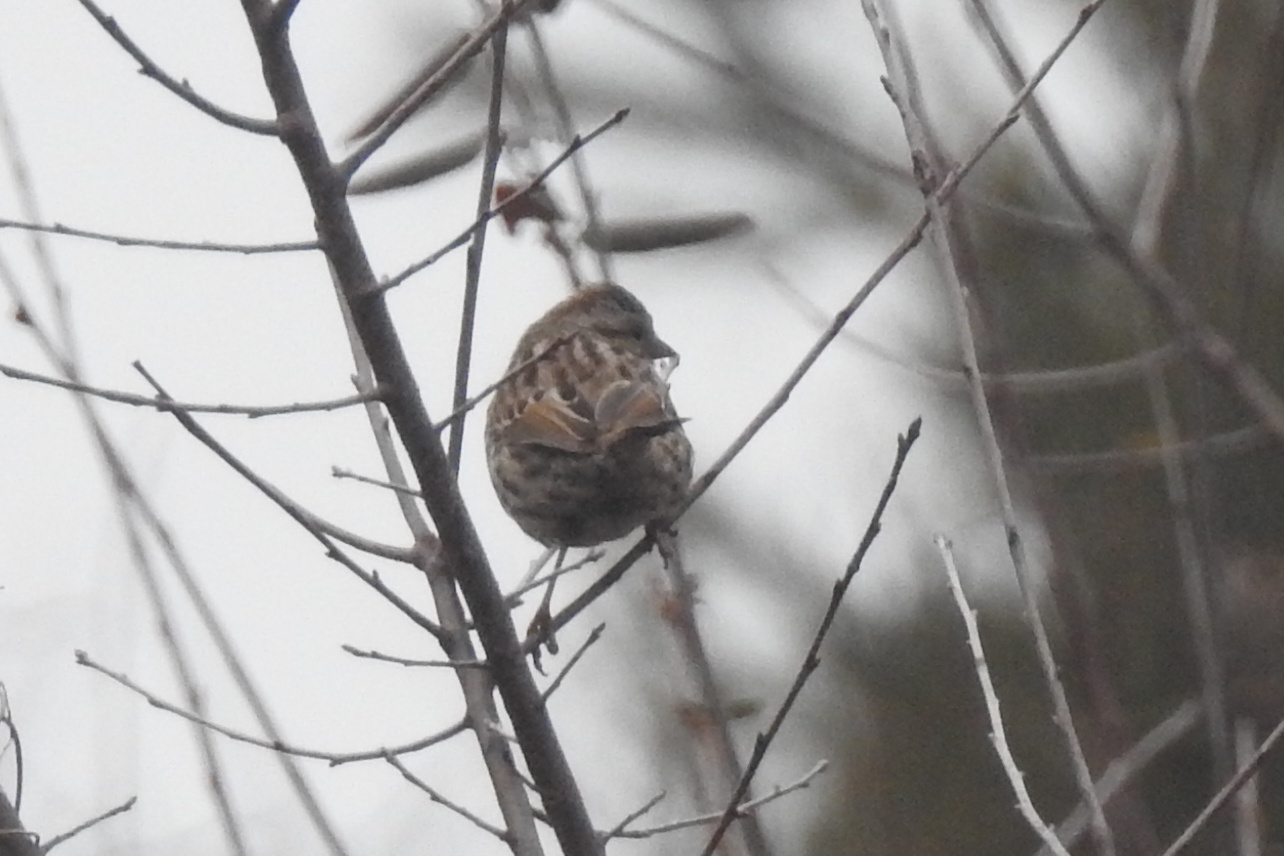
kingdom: Animalia
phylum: Chordata
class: Aves
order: Passeriformes
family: Passerellidae
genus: Melospiza
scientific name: Melospiza melodia
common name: Song sparrow
